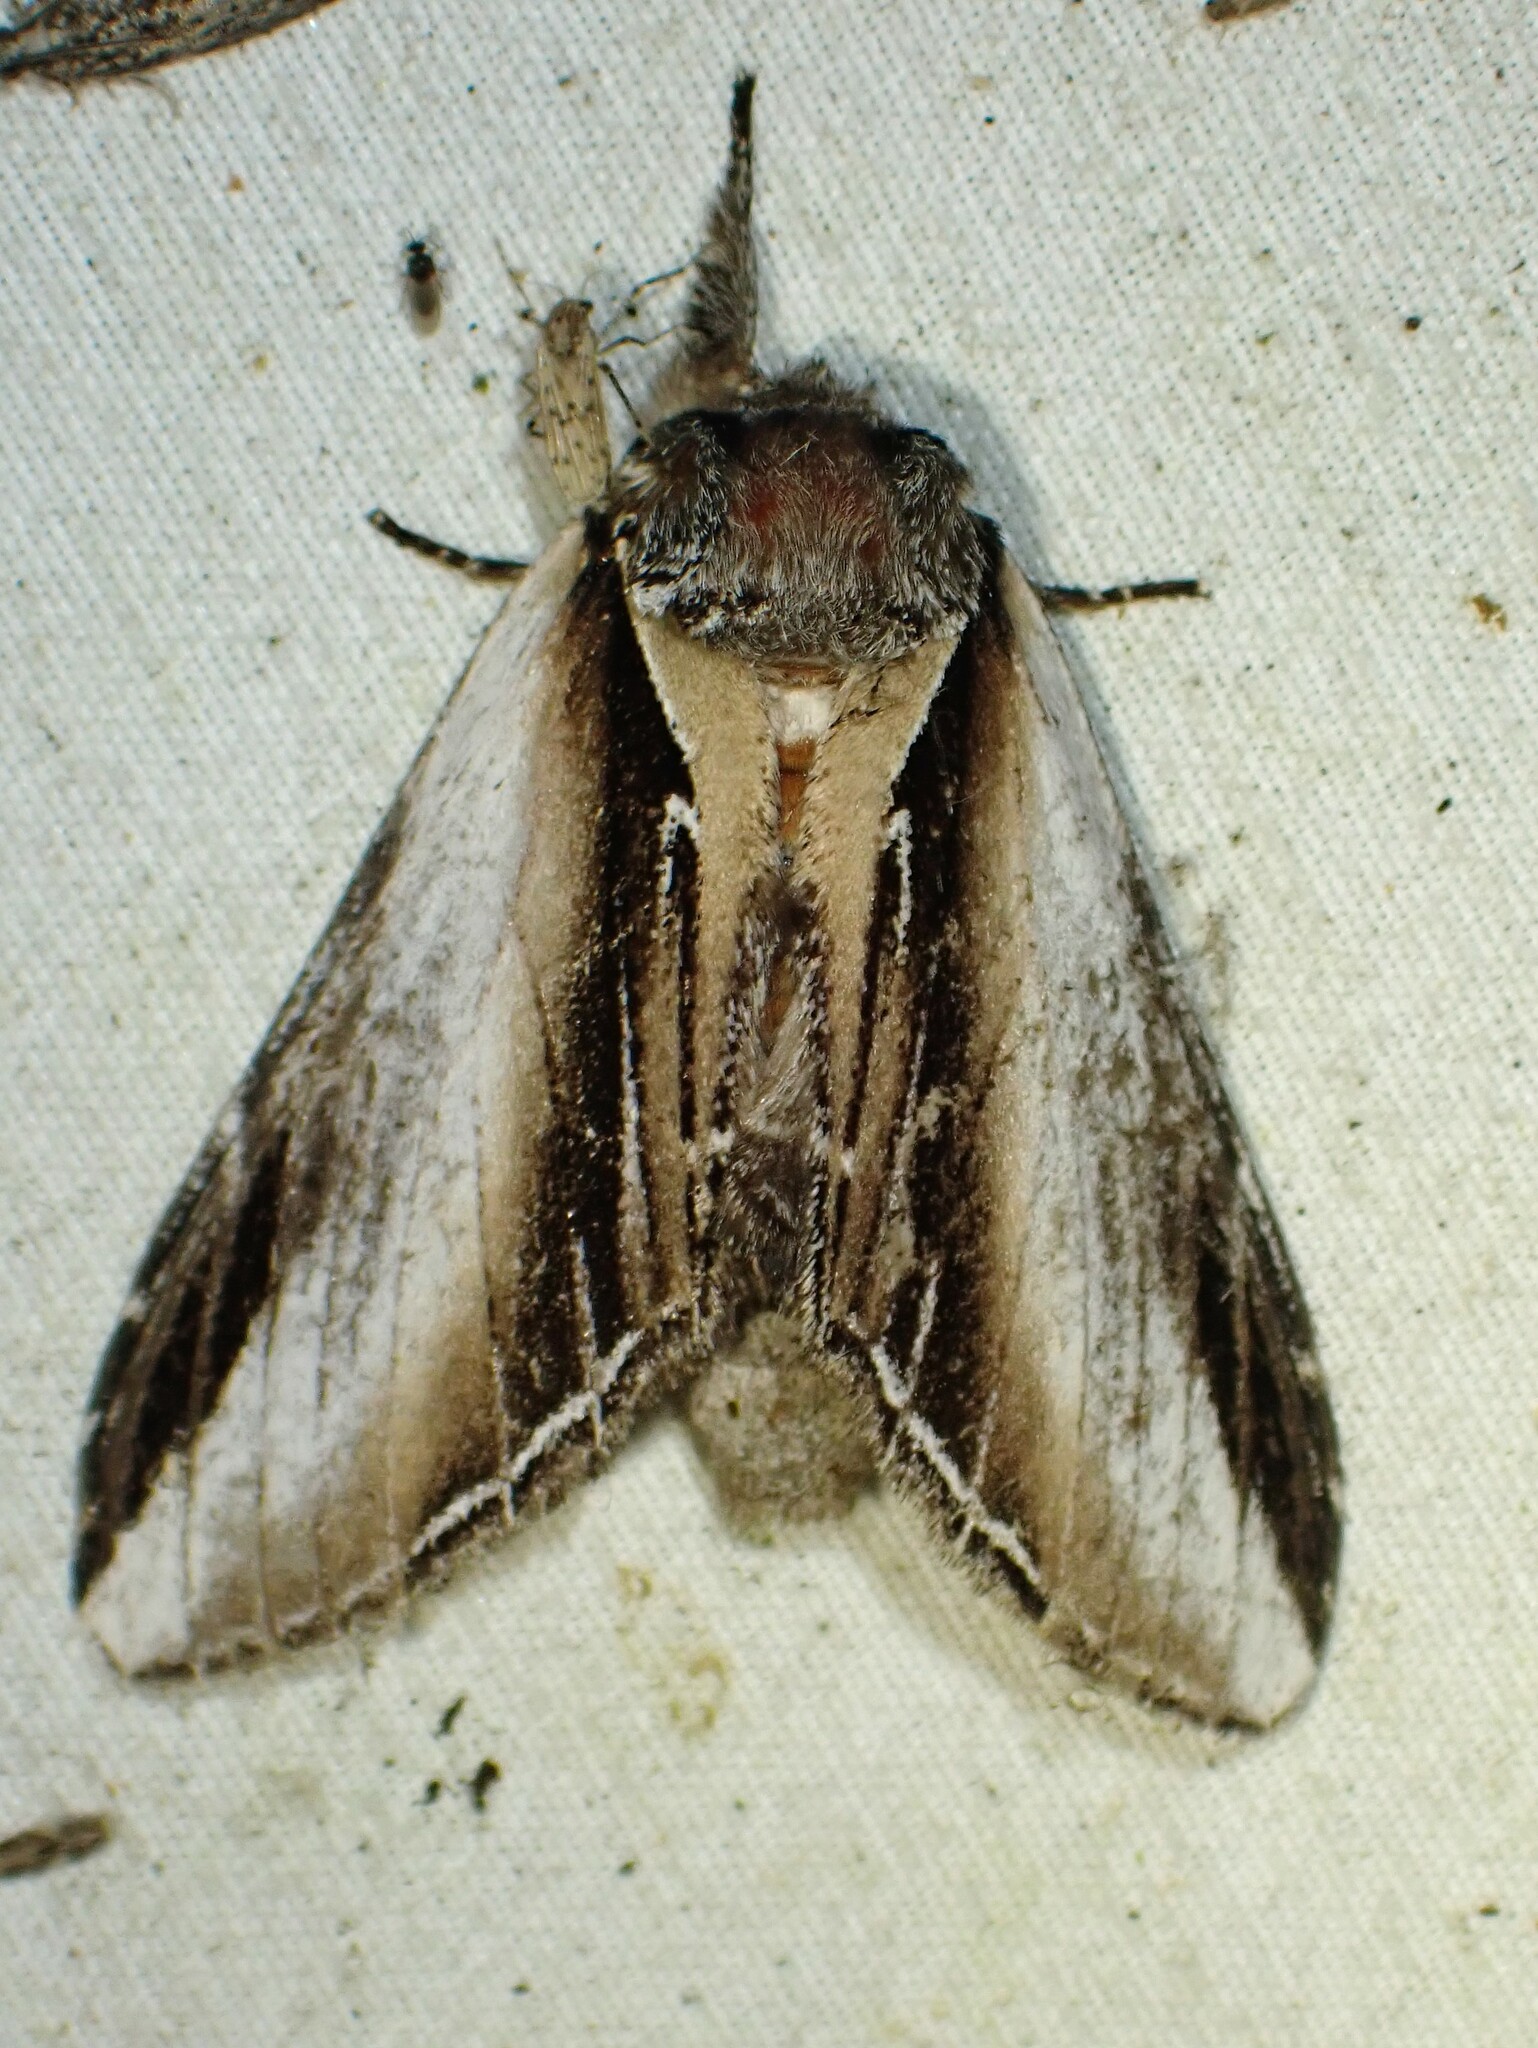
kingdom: Animalia
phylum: Arthropoda
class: Insecta
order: Lepidoptera
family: Notodontidae
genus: Pheosia
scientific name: Pheosia rimosa
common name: Black-rimmed prominent
